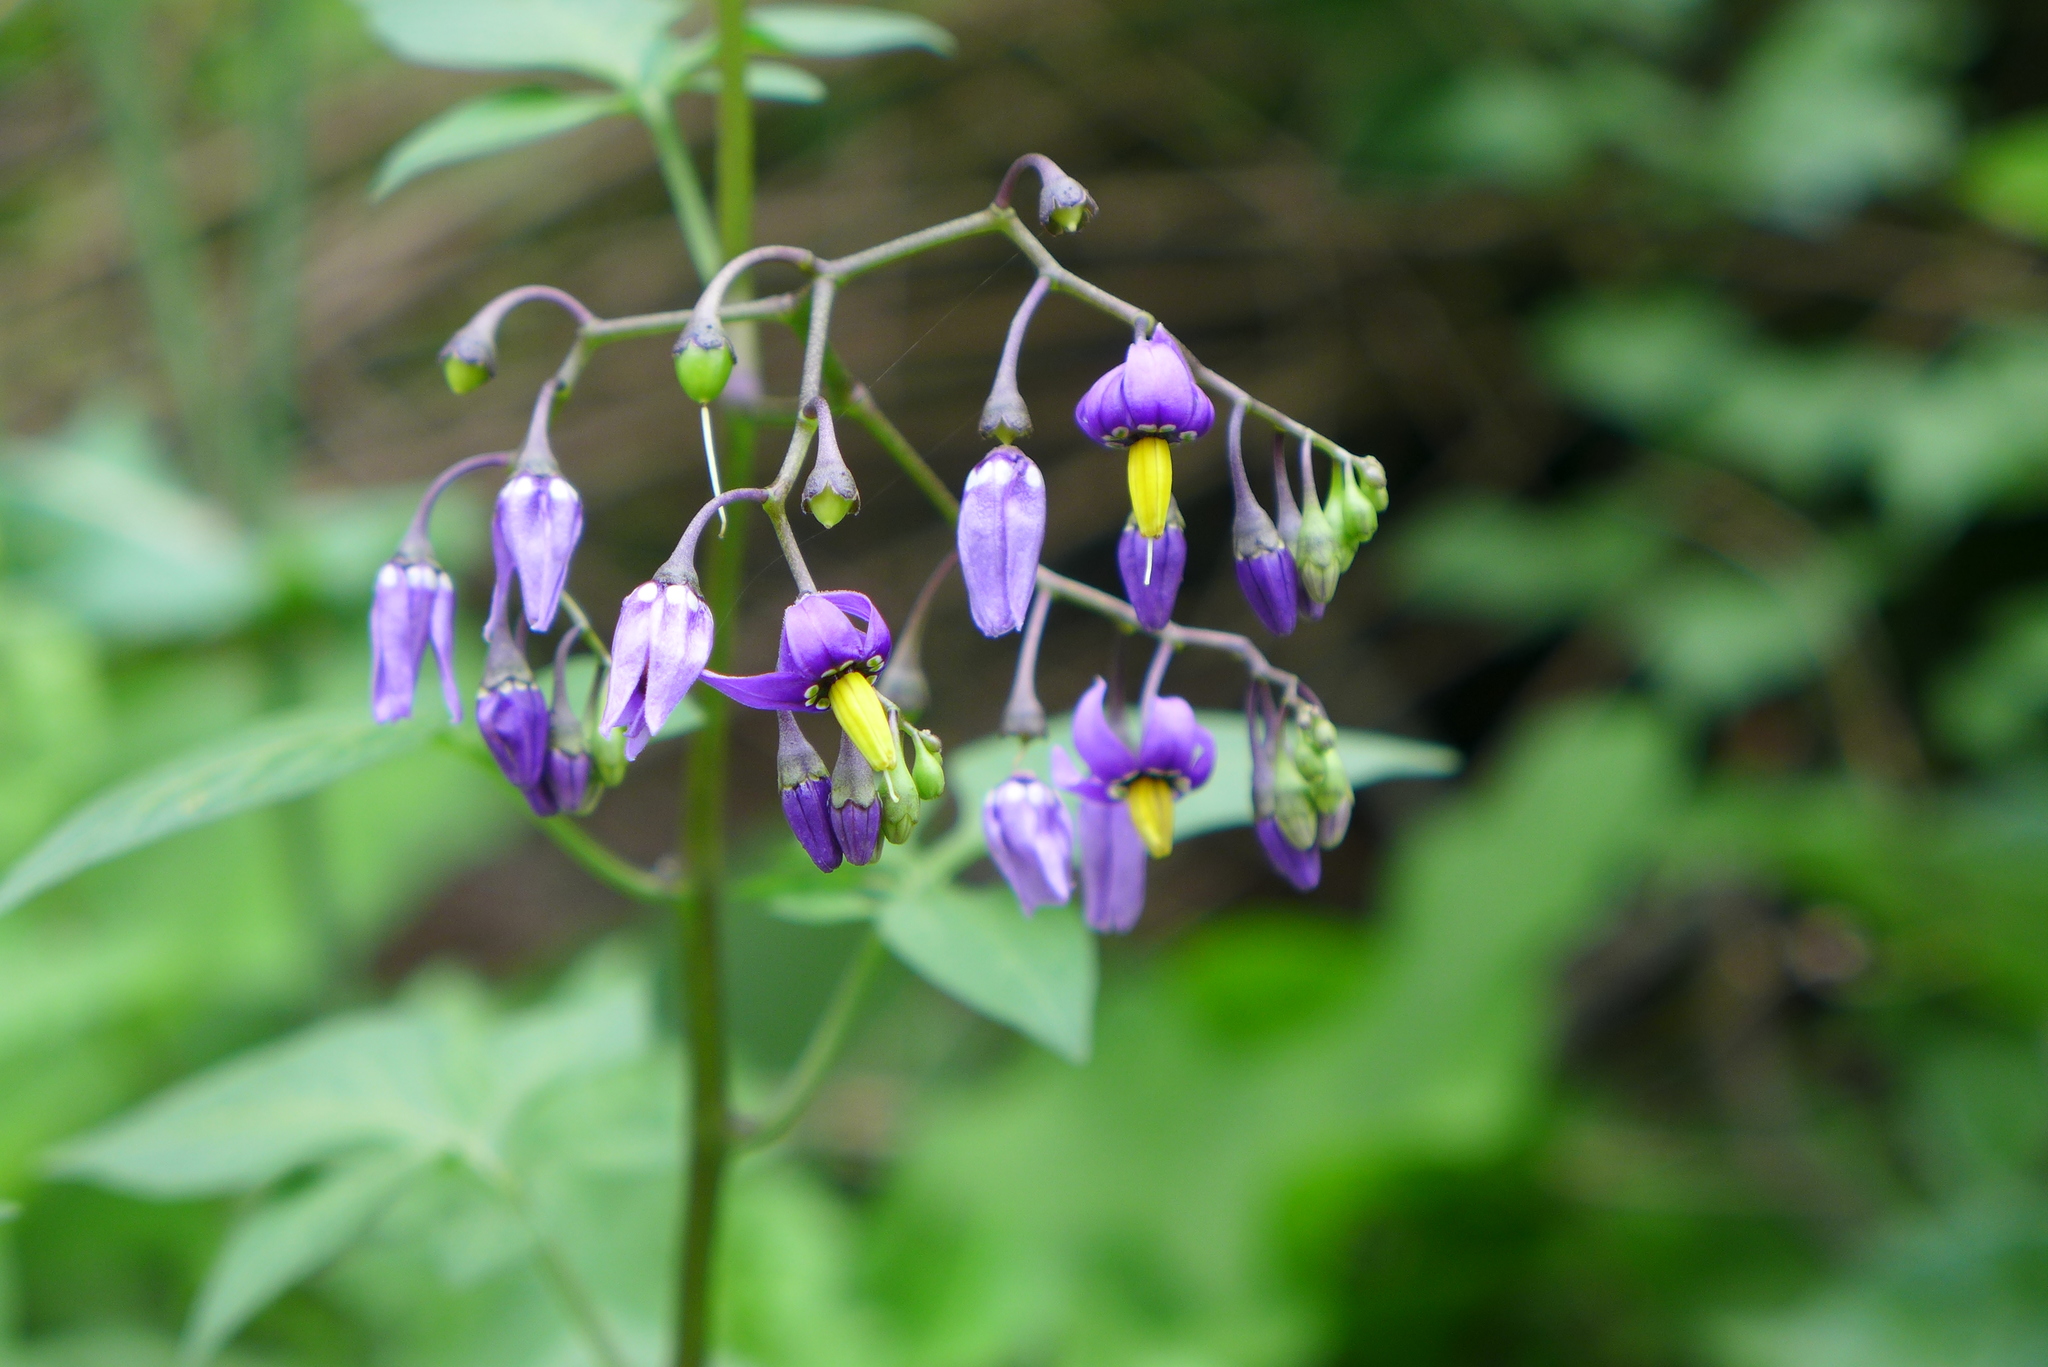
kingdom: Plantae
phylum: Tracheophyta
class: Magnoliopsida
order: Solanales
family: Solanaceae
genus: Solanum
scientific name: Solanum dulcamara
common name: Climbing nightshade
